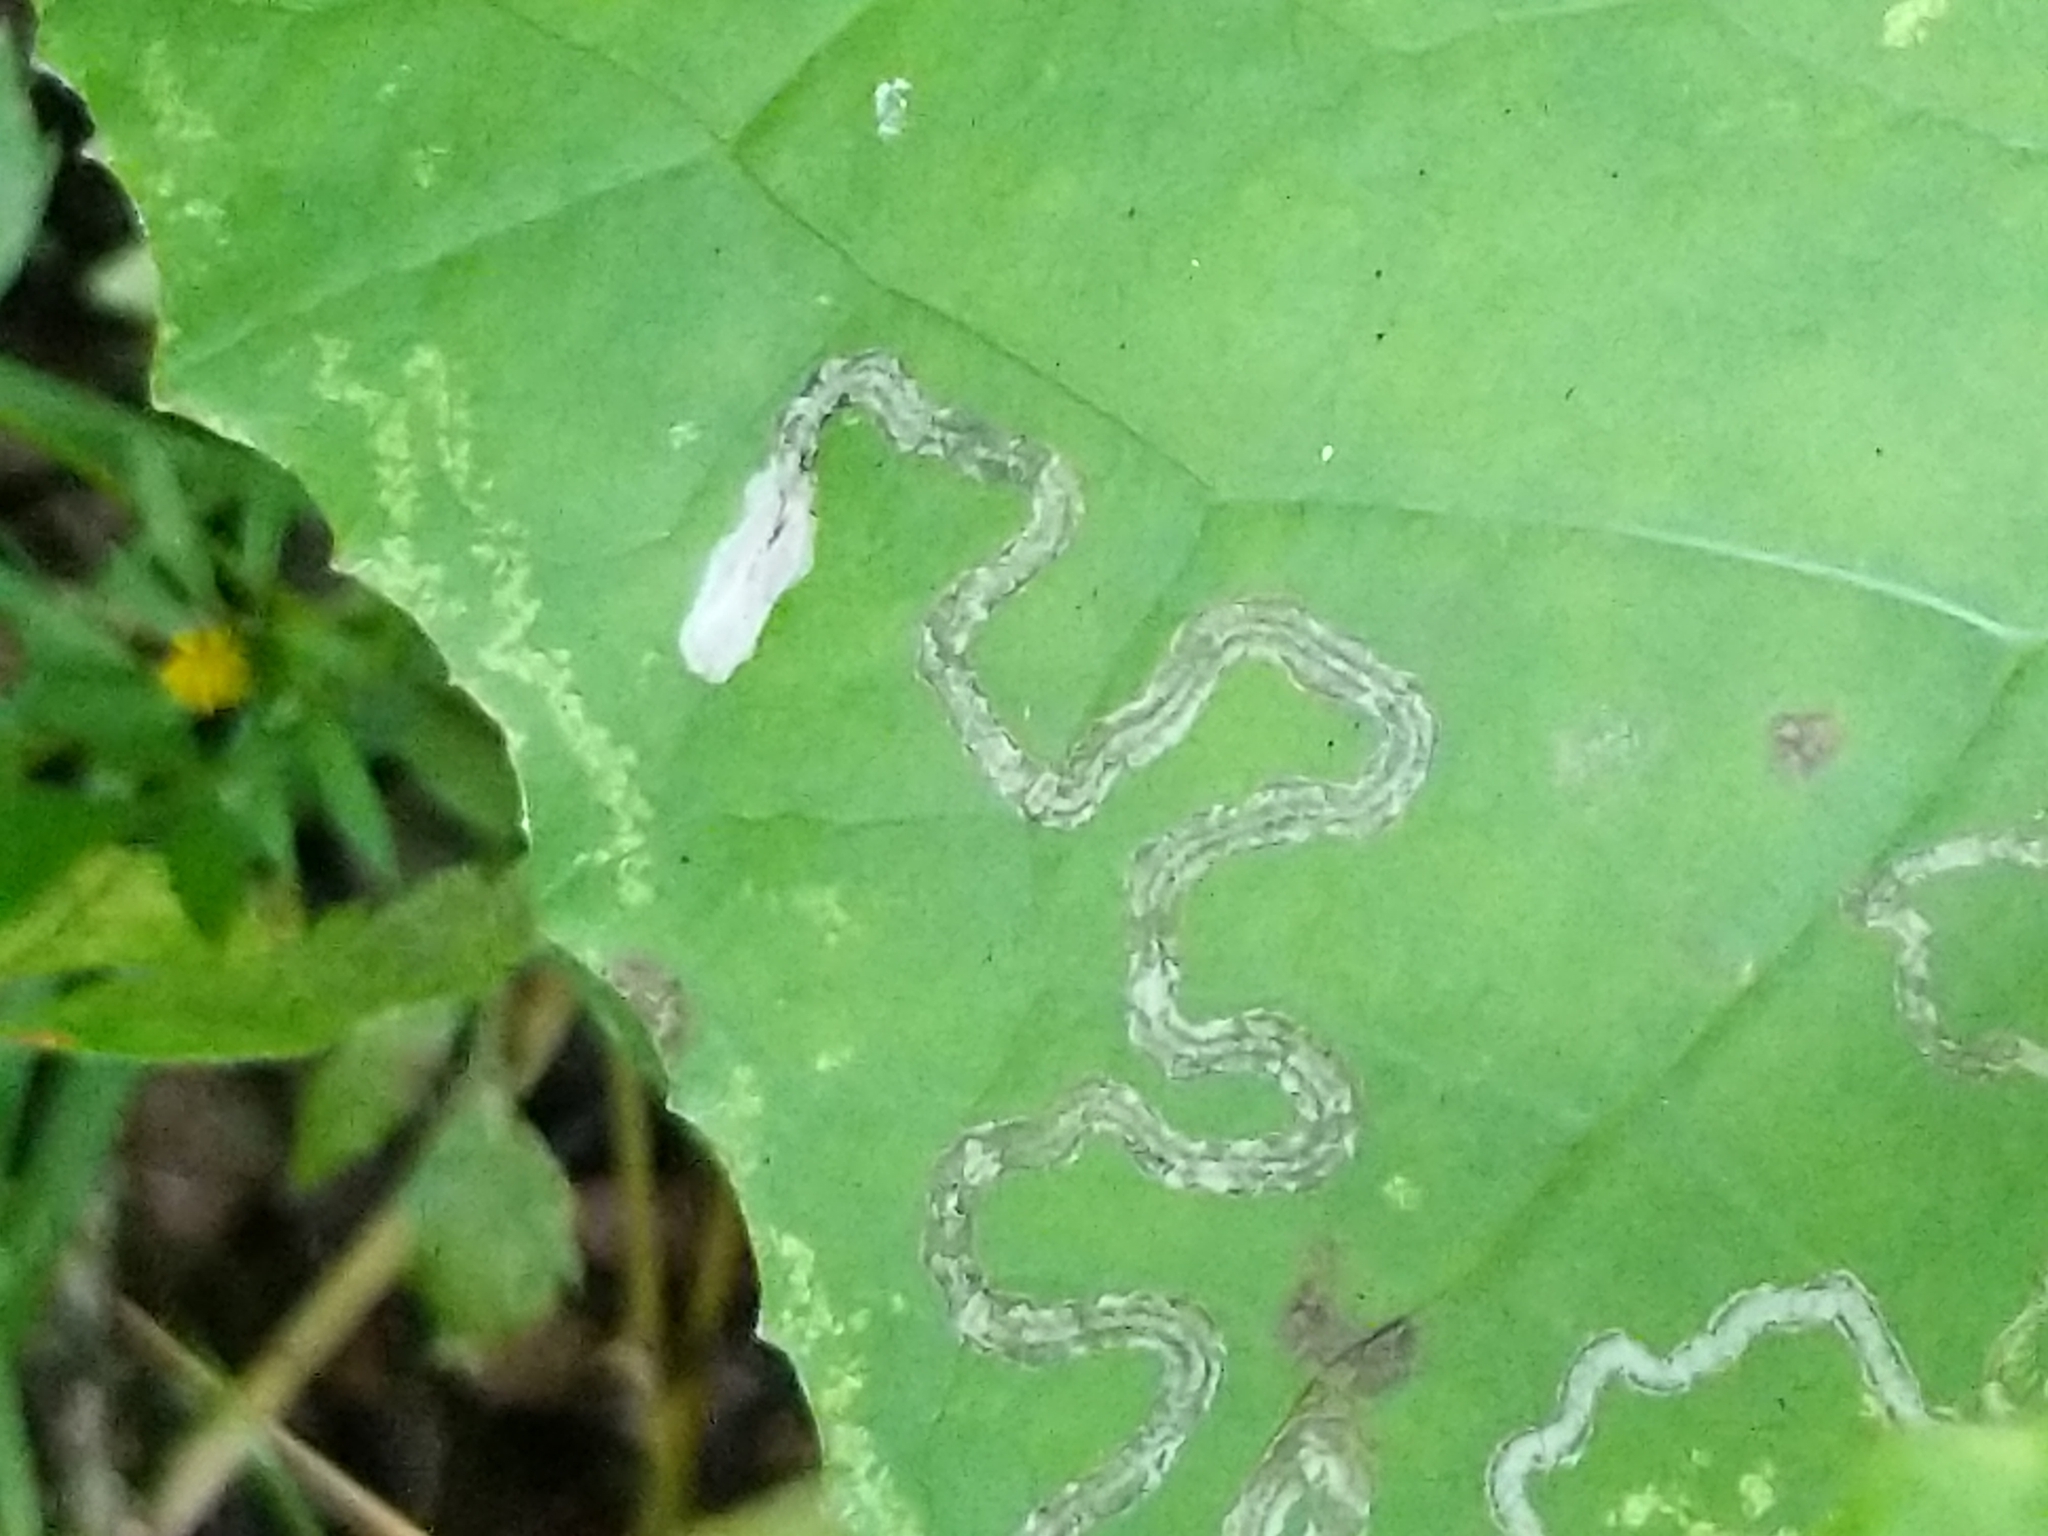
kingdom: Animalia
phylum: Arthropoda
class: Insecta
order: Lepidoptera
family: Gracillariidae
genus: Phyllocnistis
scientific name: Phyllocnistis insignis
